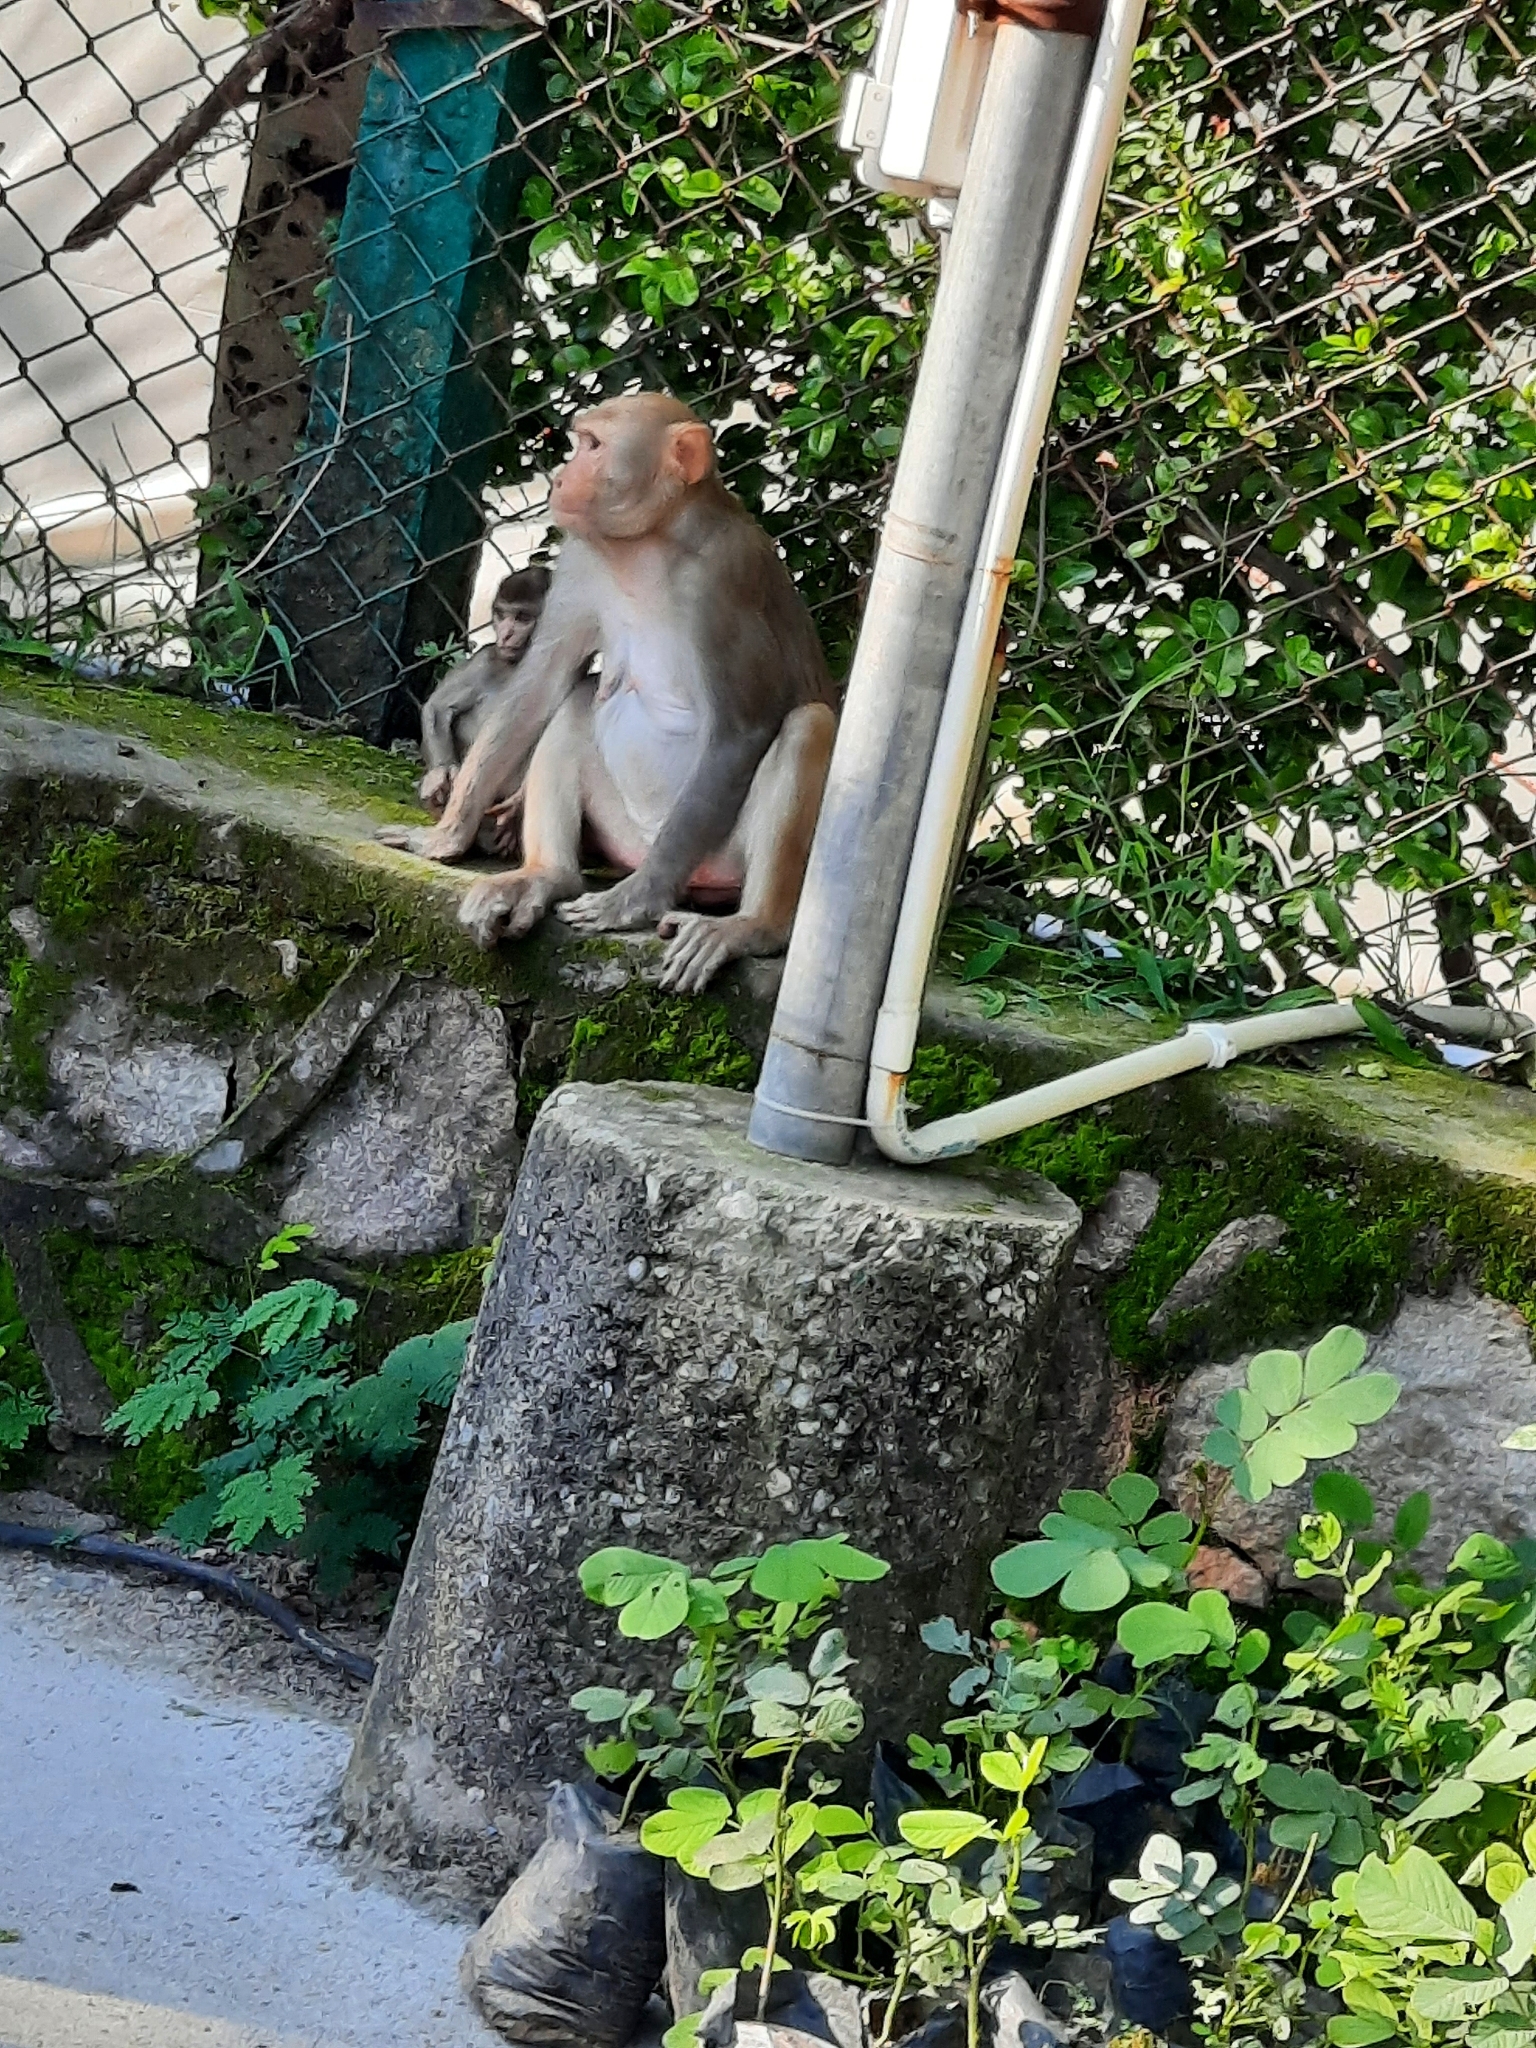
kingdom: Animalia
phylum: Chordata
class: Mammalia
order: Primates
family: Cercopithecidae
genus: Macaca
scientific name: Macaca mulatta
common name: Rhesus monkey
